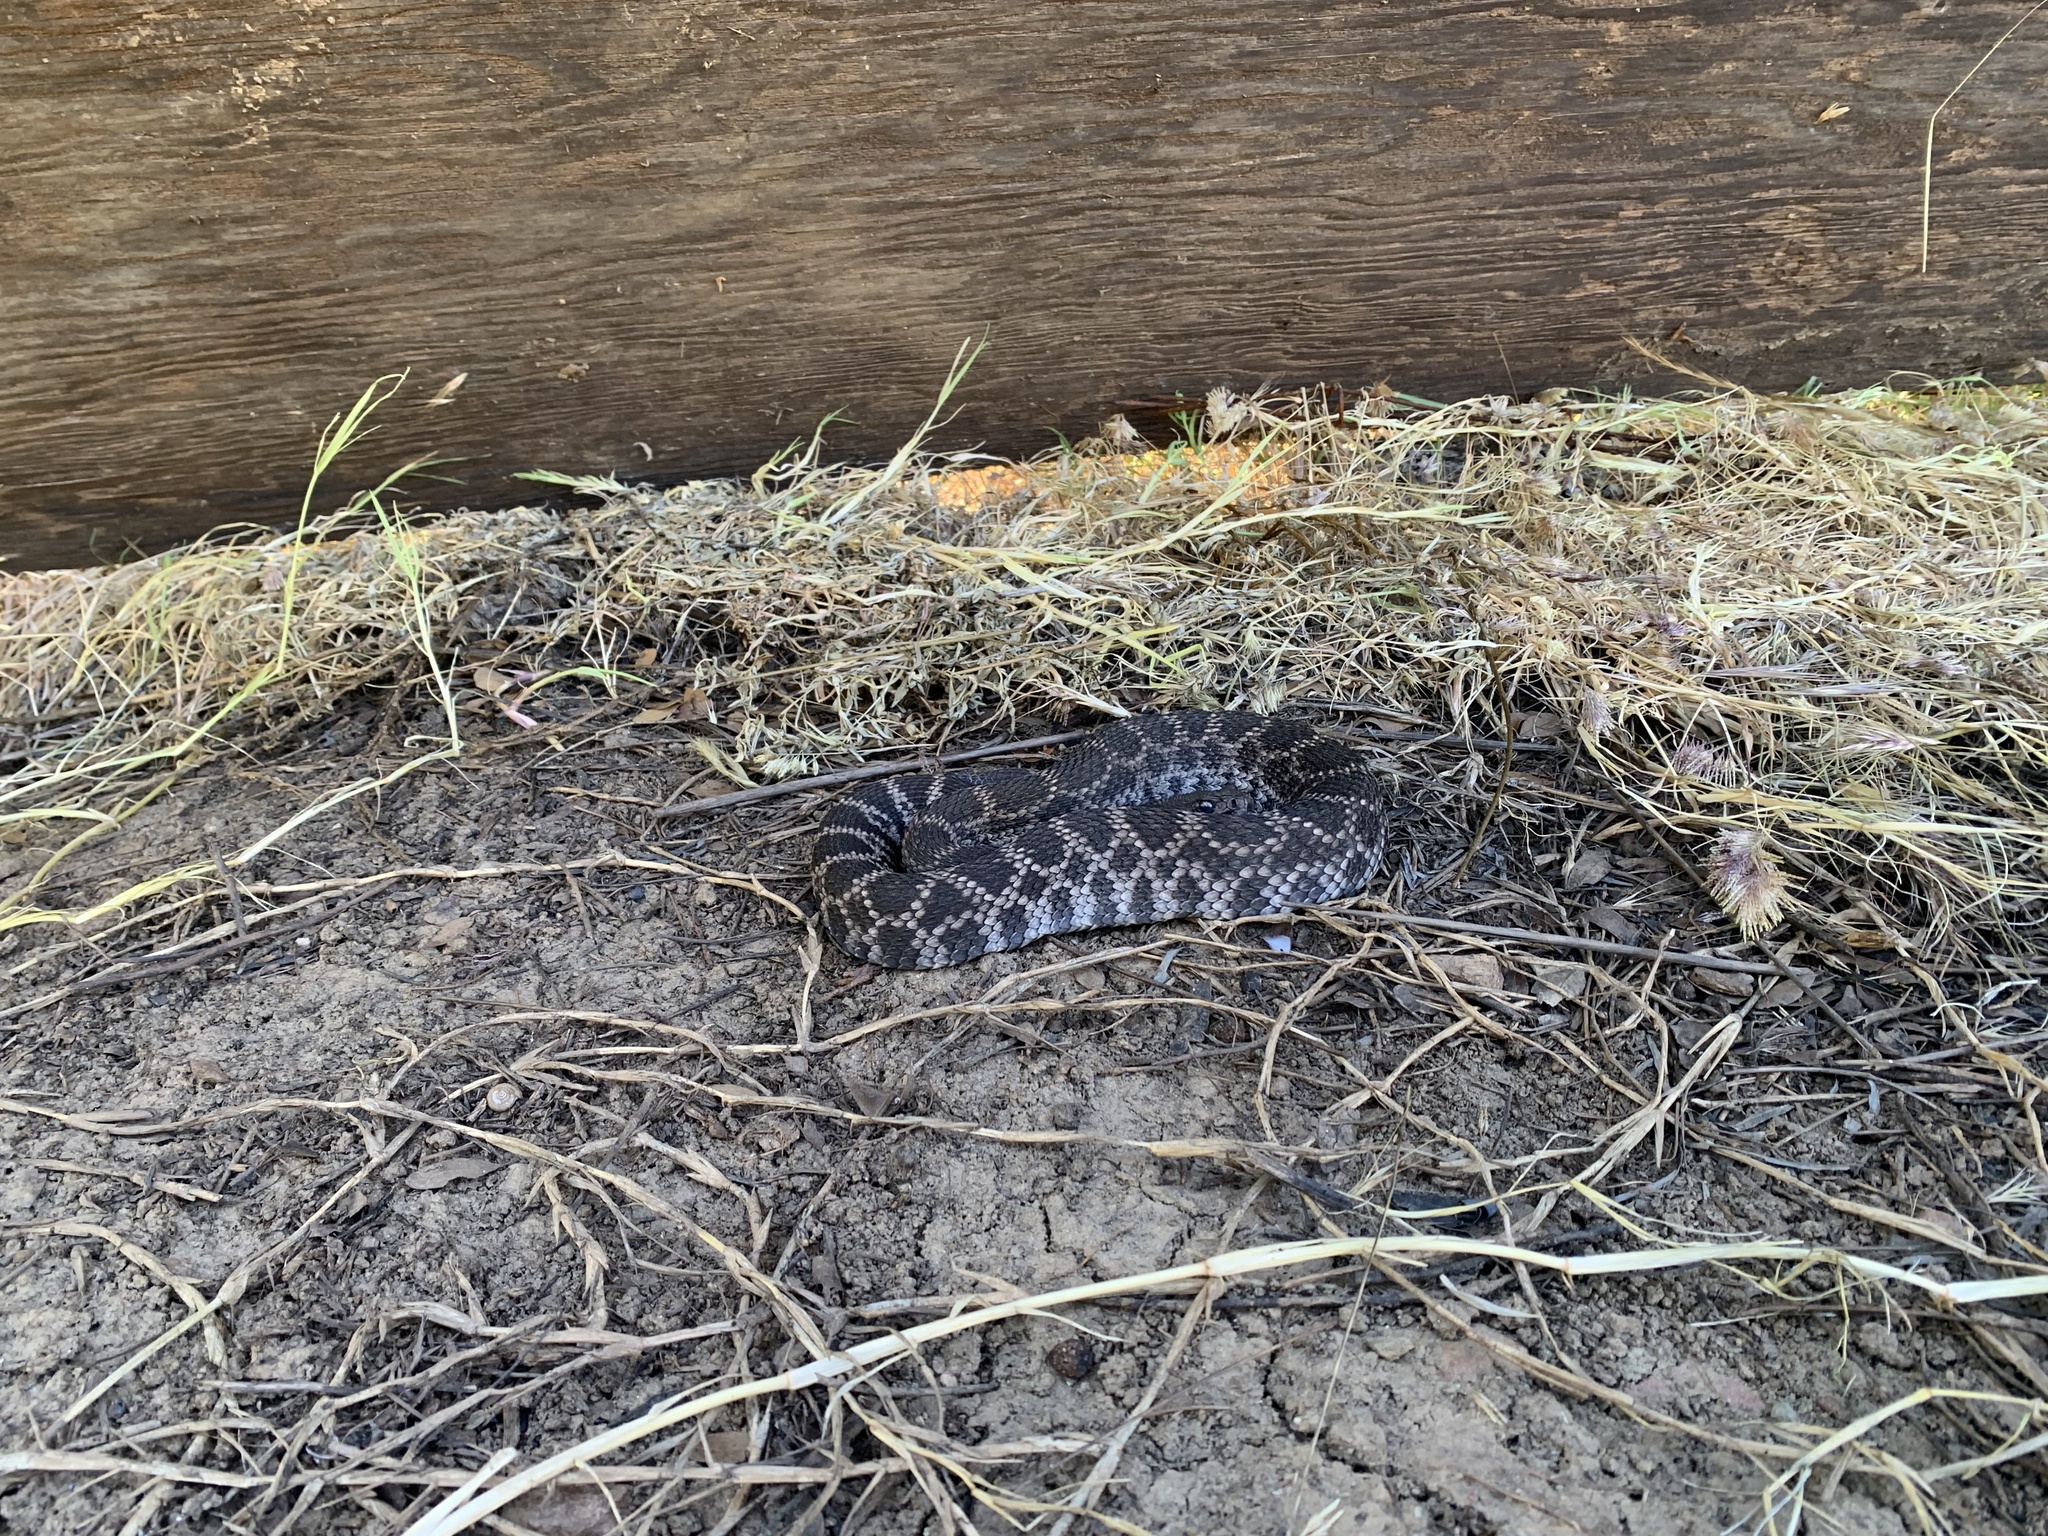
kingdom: Animalia
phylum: Chordata
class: Squamata
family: Viperidae
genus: Crotalus
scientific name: Crotalus oreganus
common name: Abyssus
